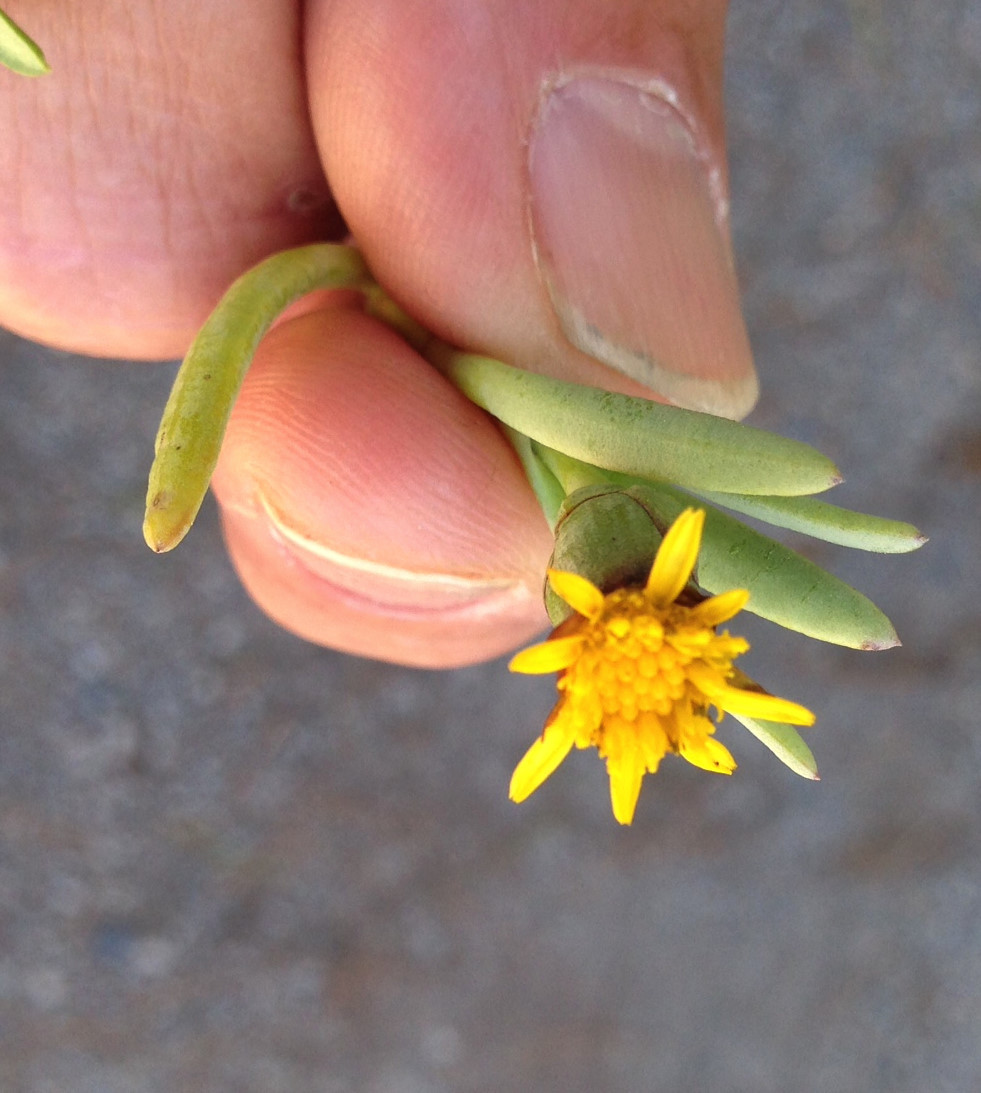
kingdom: Plantae
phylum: Tracheophyta
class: Magnoliopsida
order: Asterales
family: Asteraceae
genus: Jaumea
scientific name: Jaumea carnosa
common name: Fleshy jaumea
